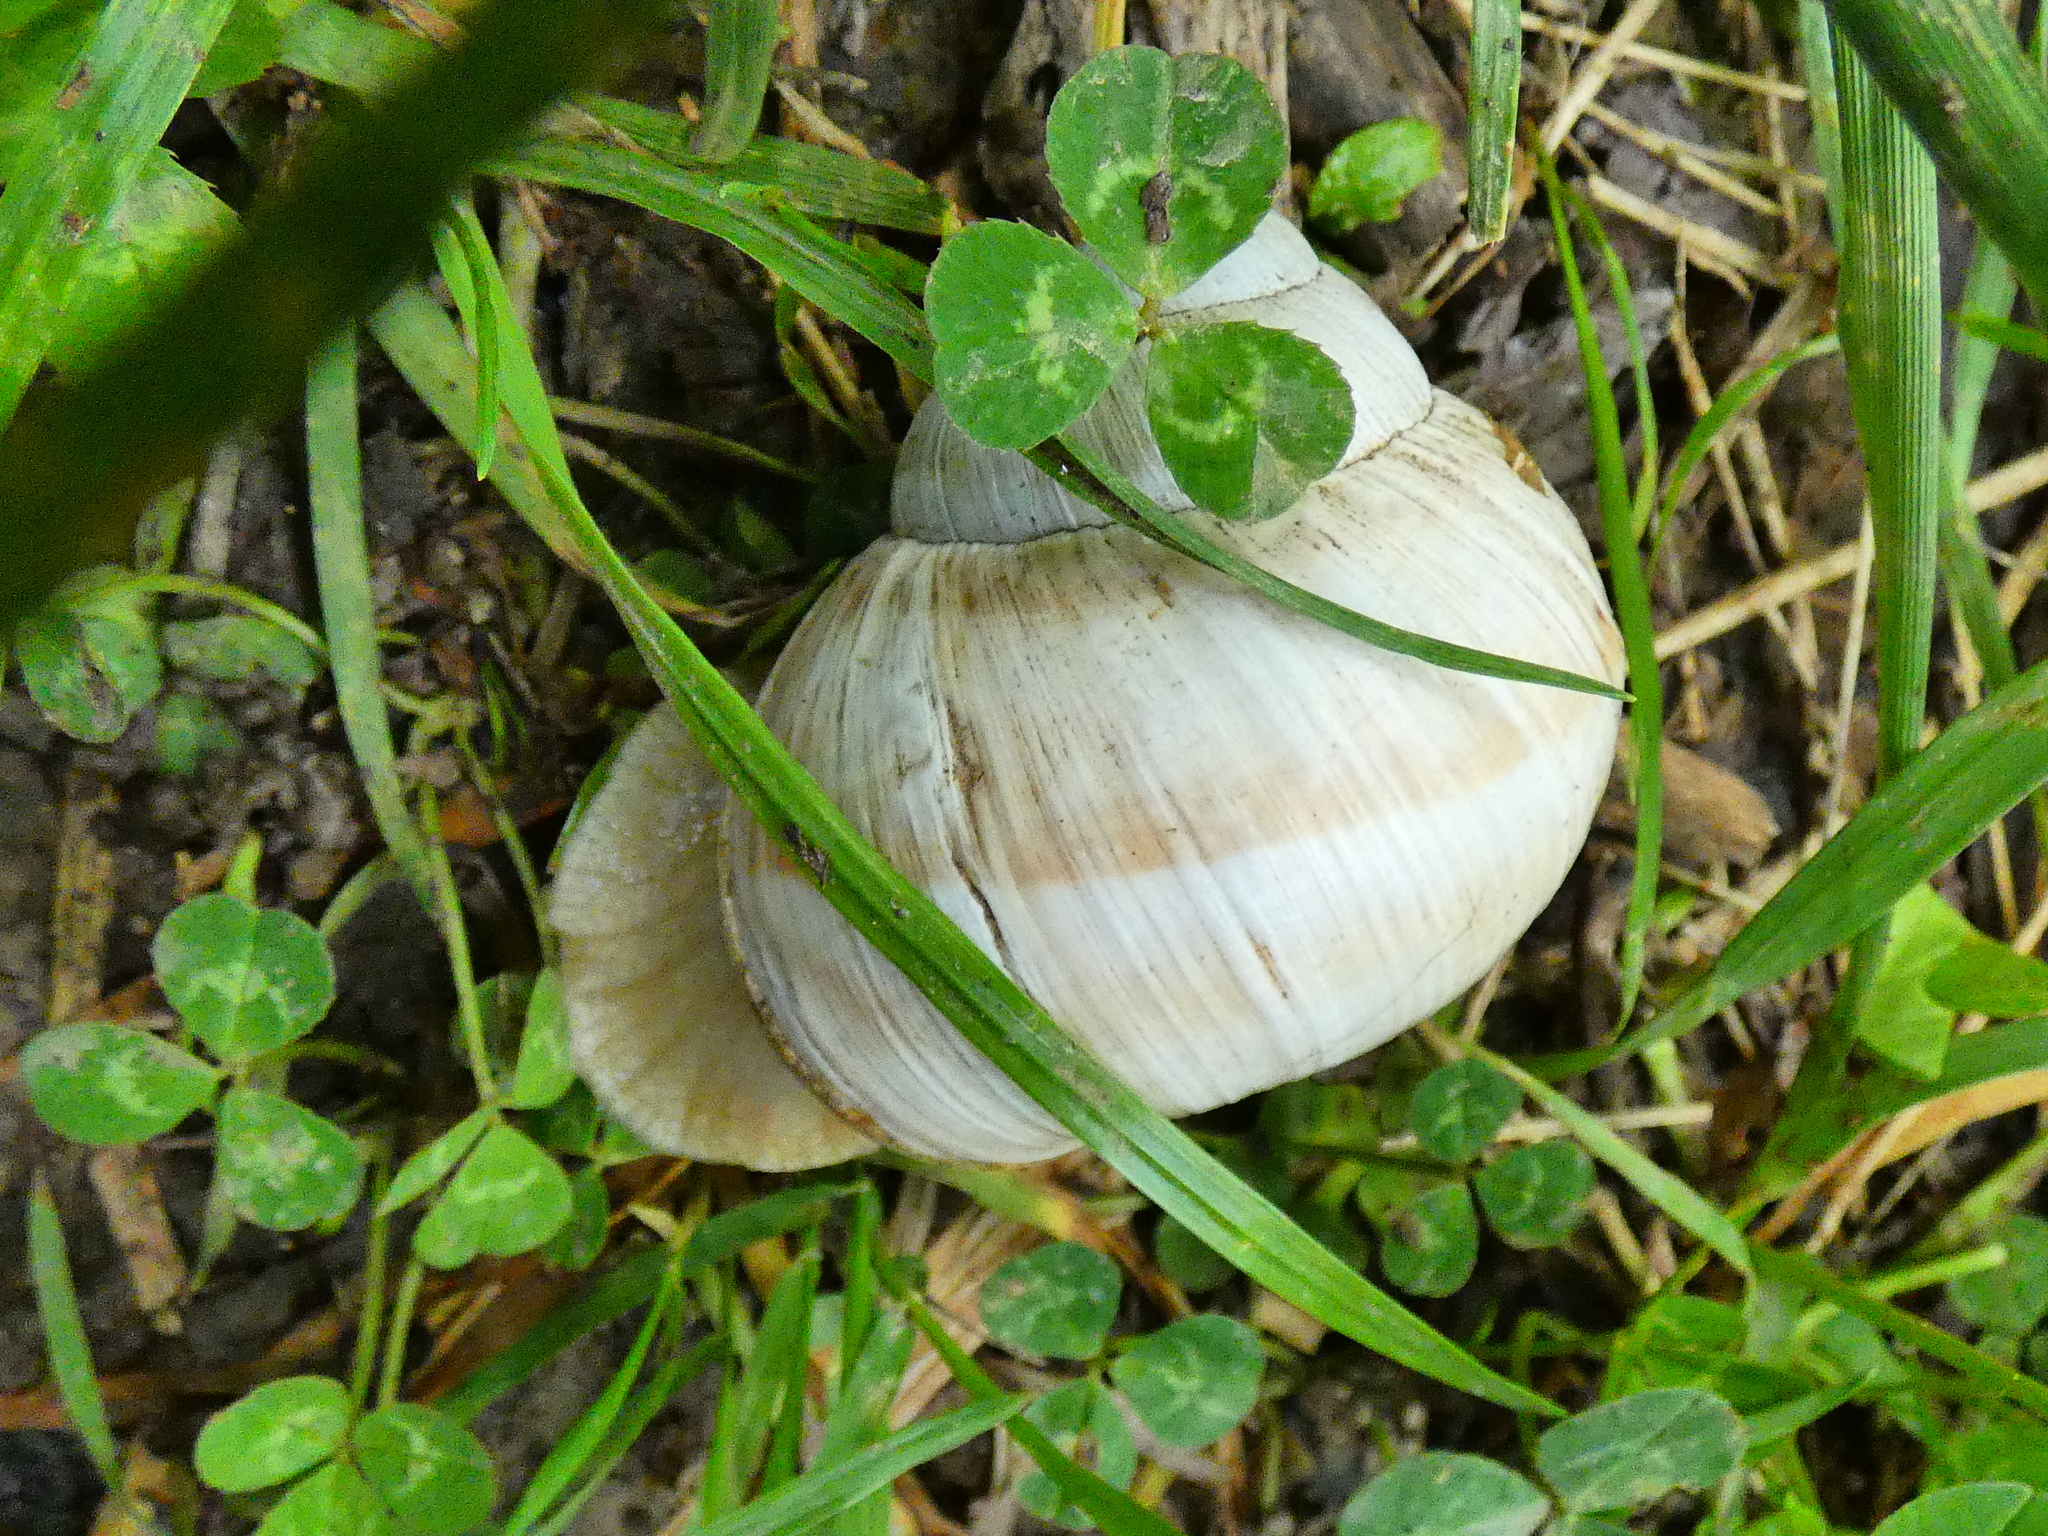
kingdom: Animalia
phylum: Mollusca
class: Gastropoda
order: Stylommatophora
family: Helicidae
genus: Helix
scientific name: Helix pomatia
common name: Roman snail
